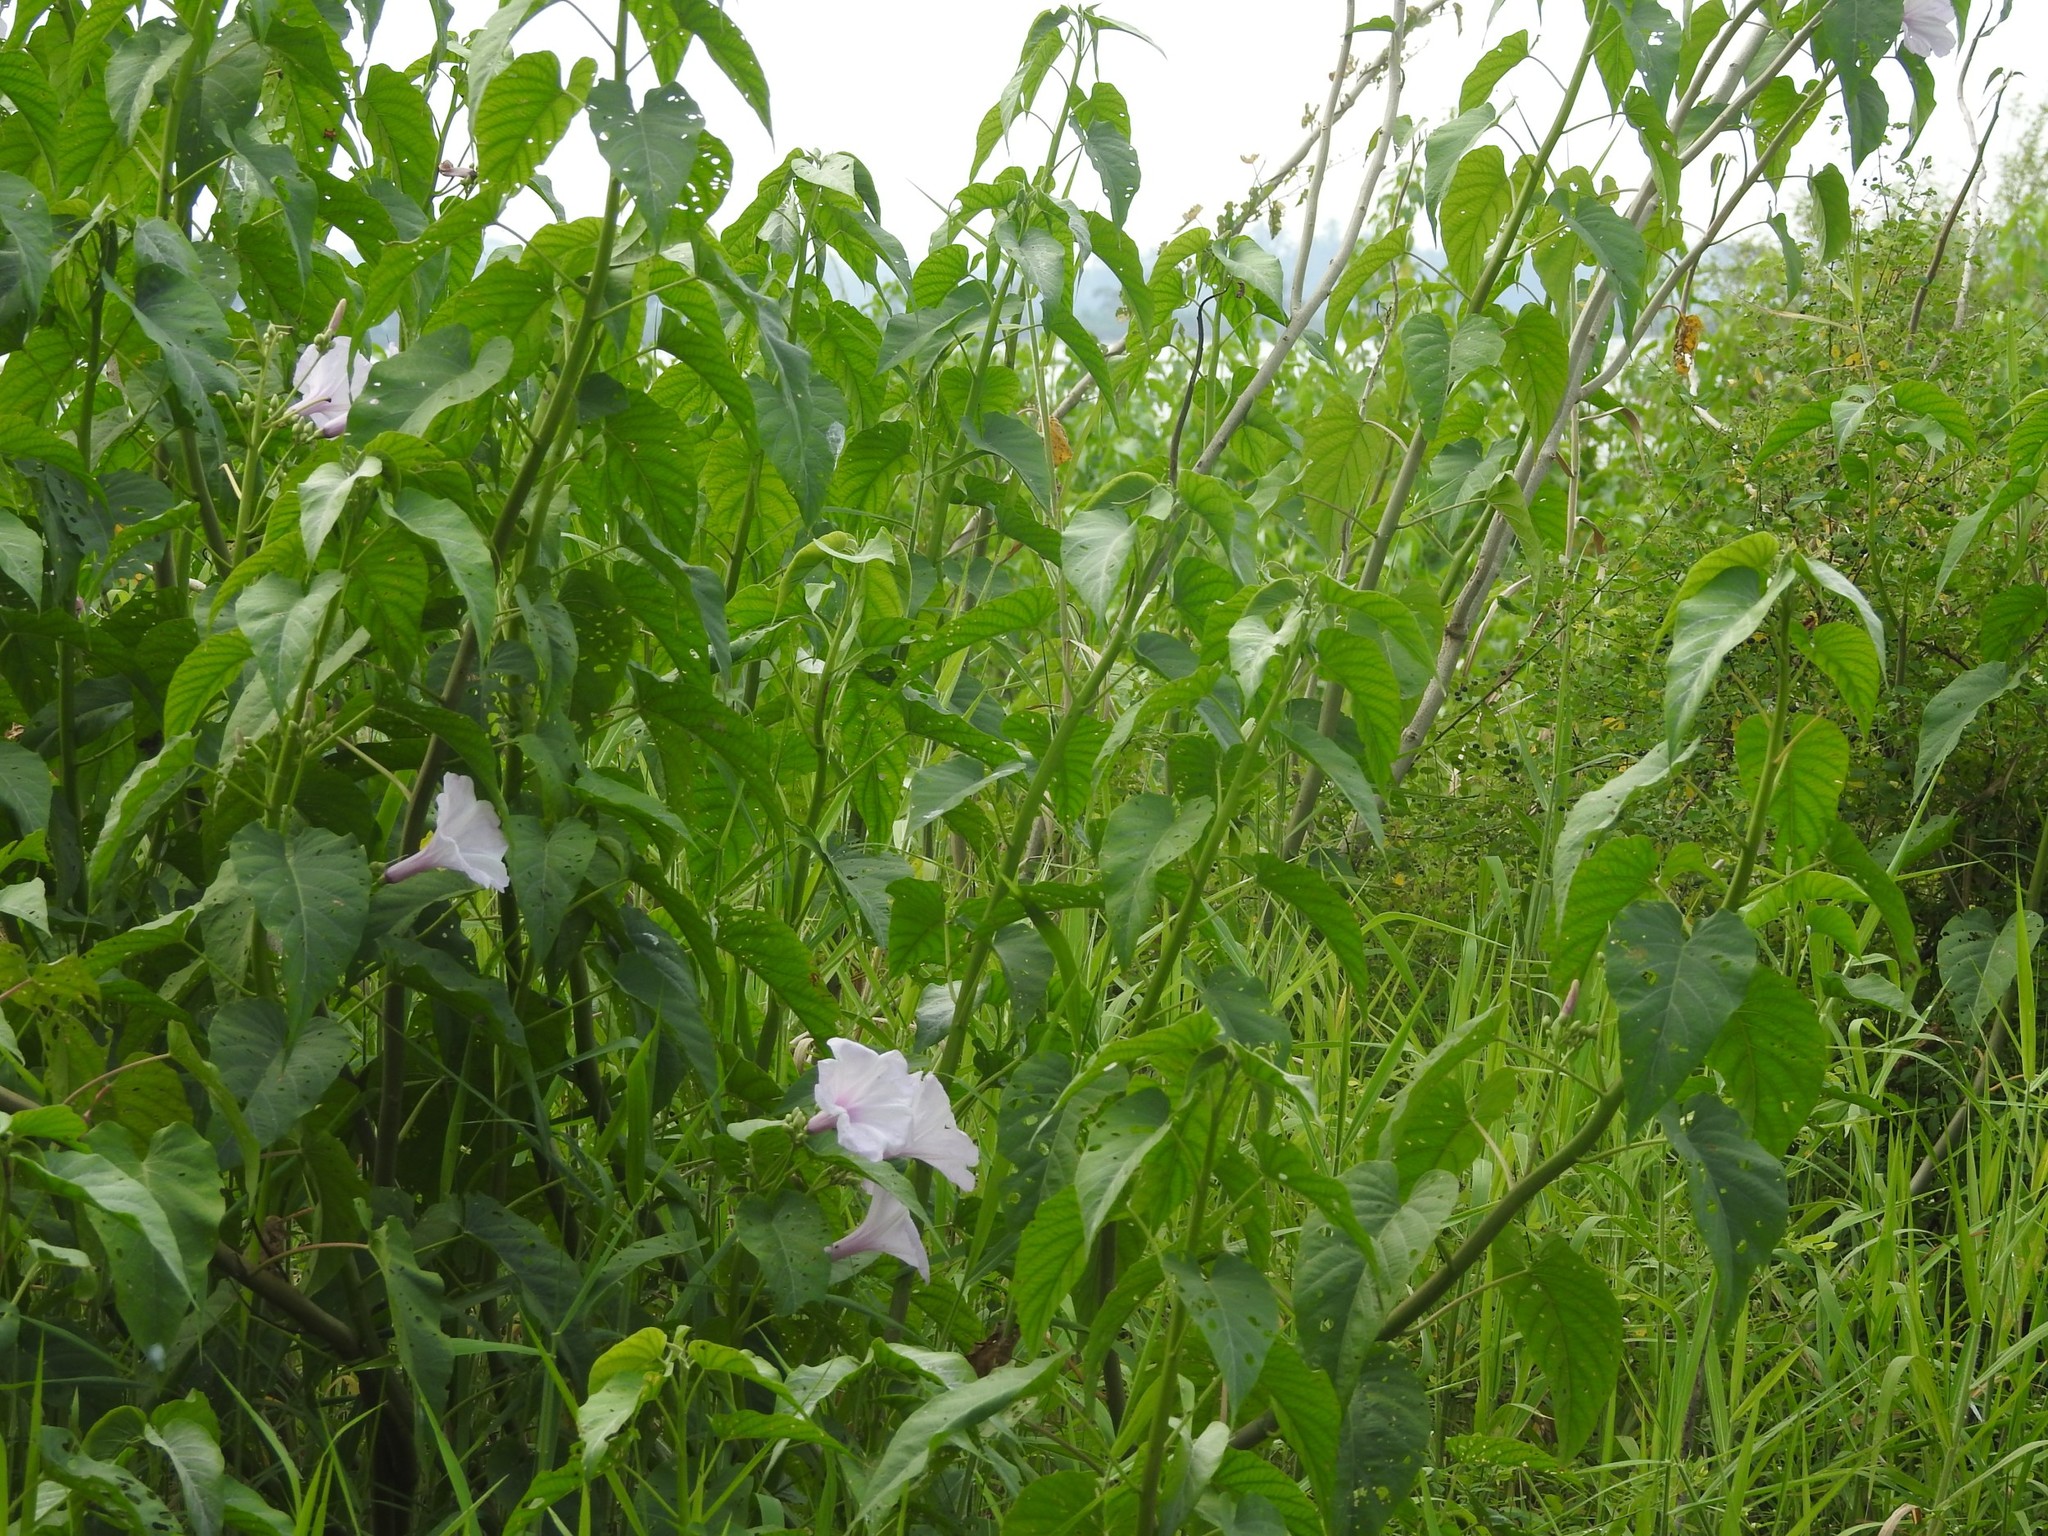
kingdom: Plantae
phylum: Tracheophyta
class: Magnoliopsida
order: Solanales
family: Convolvulaceae
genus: Ipomoea
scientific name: Ipomoea carnea
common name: Morning-glory
